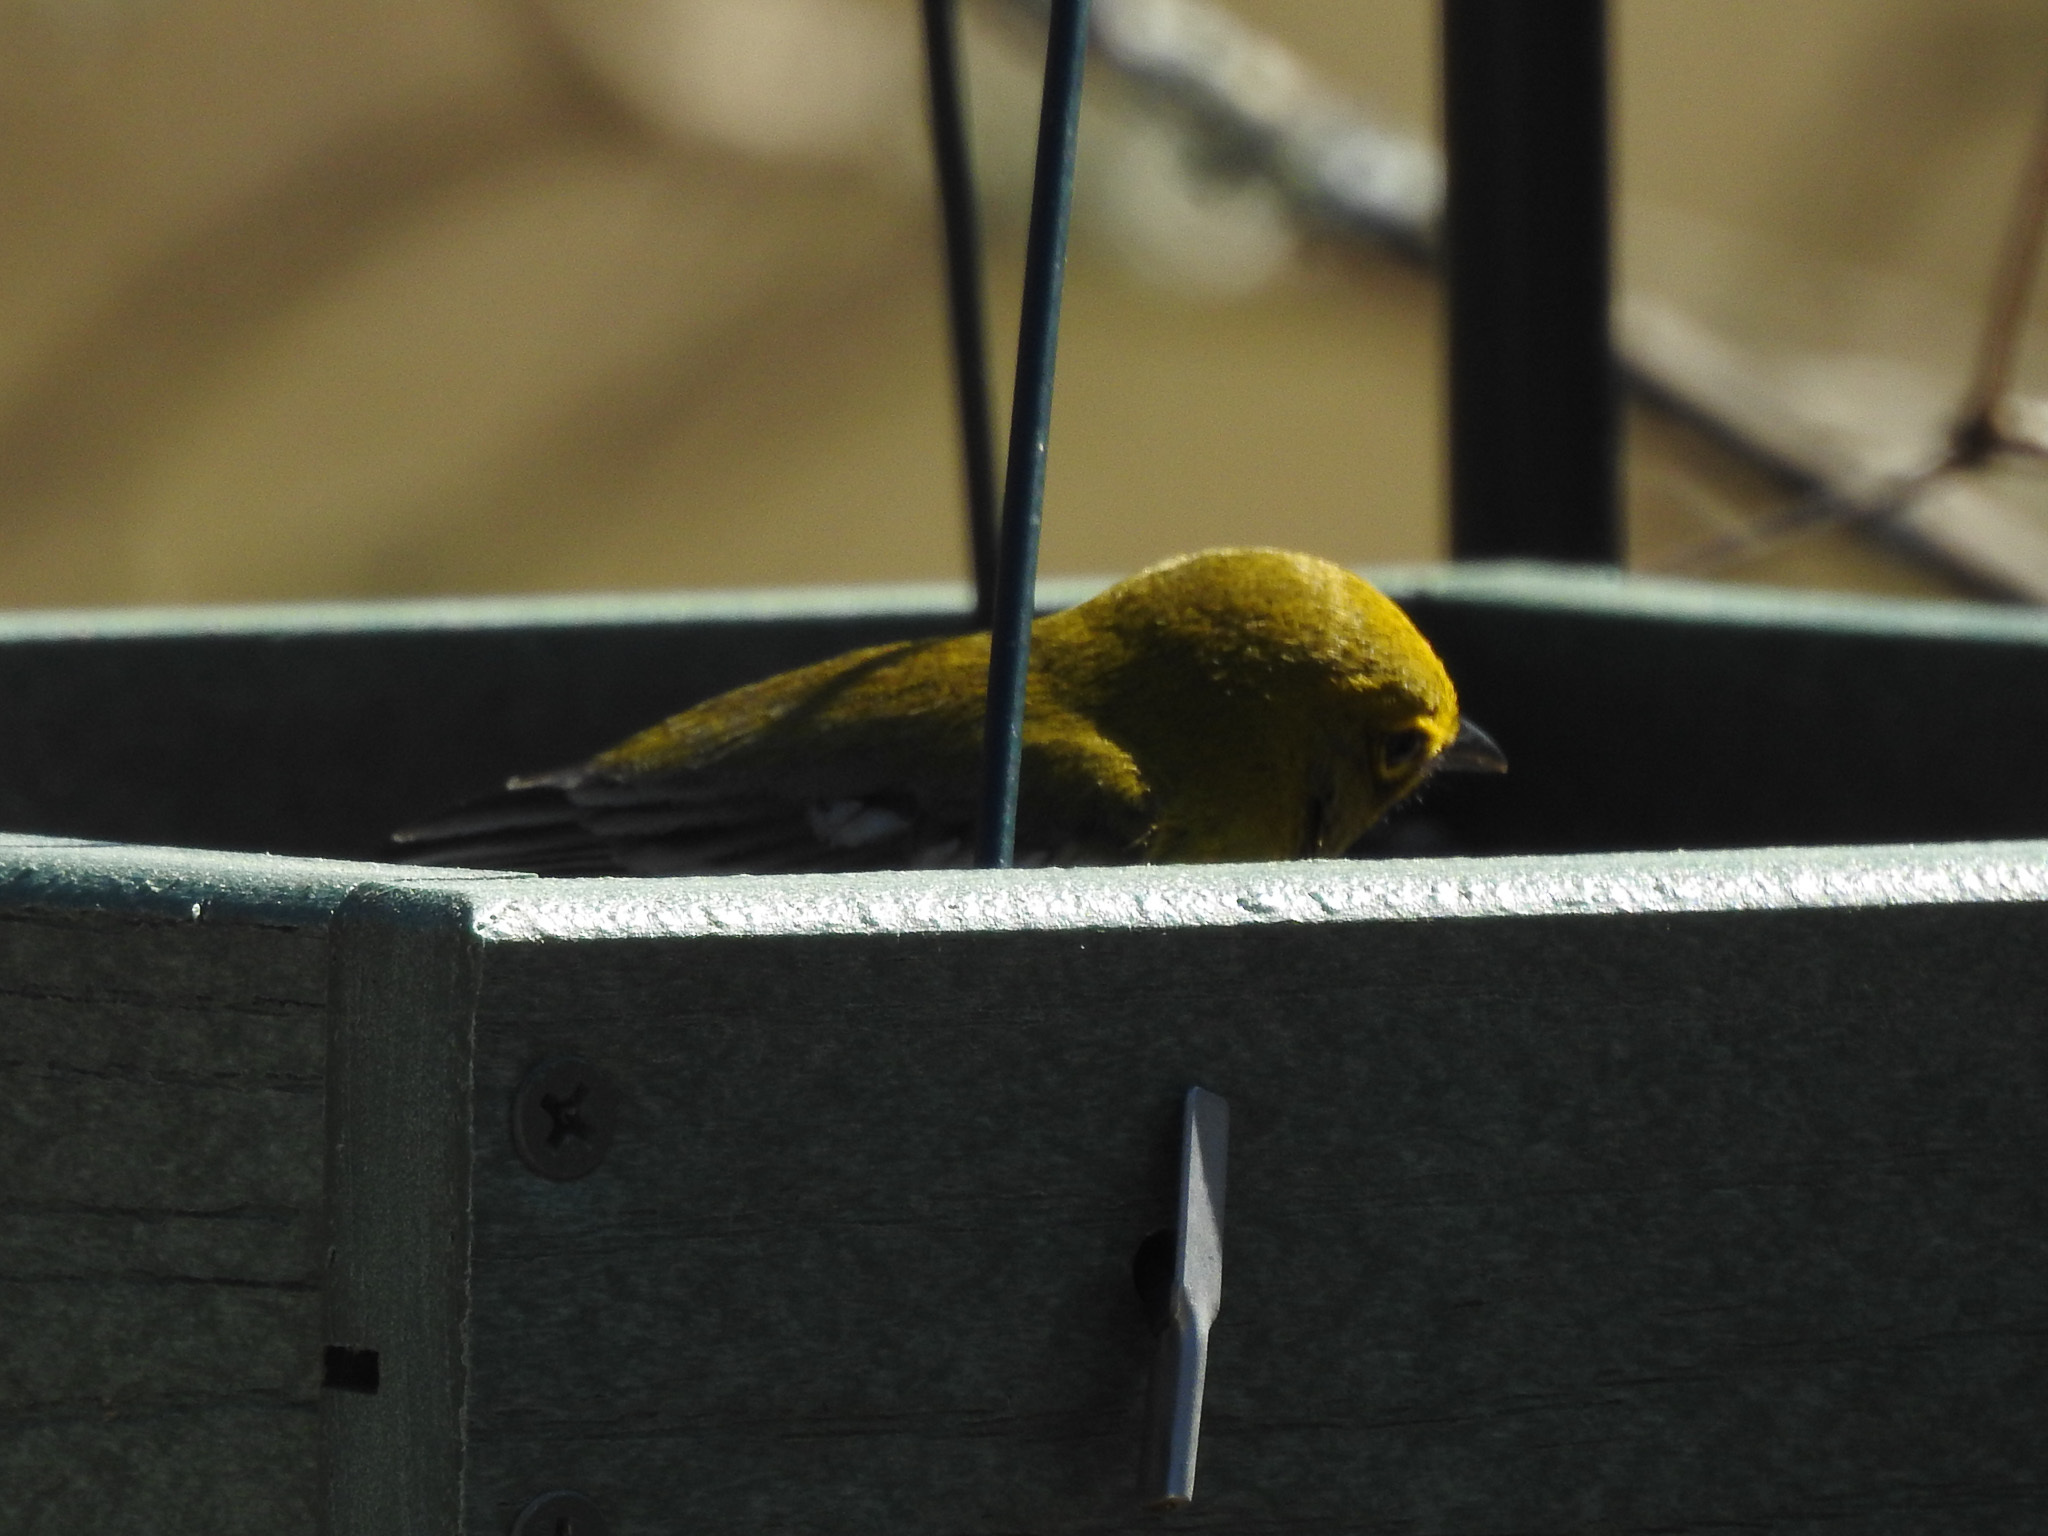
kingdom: Animalia
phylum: Chordata
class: Aves
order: Passeriformes
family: Parulidae
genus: Setophaga
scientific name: Setophaga pinus
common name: Pine warbler
